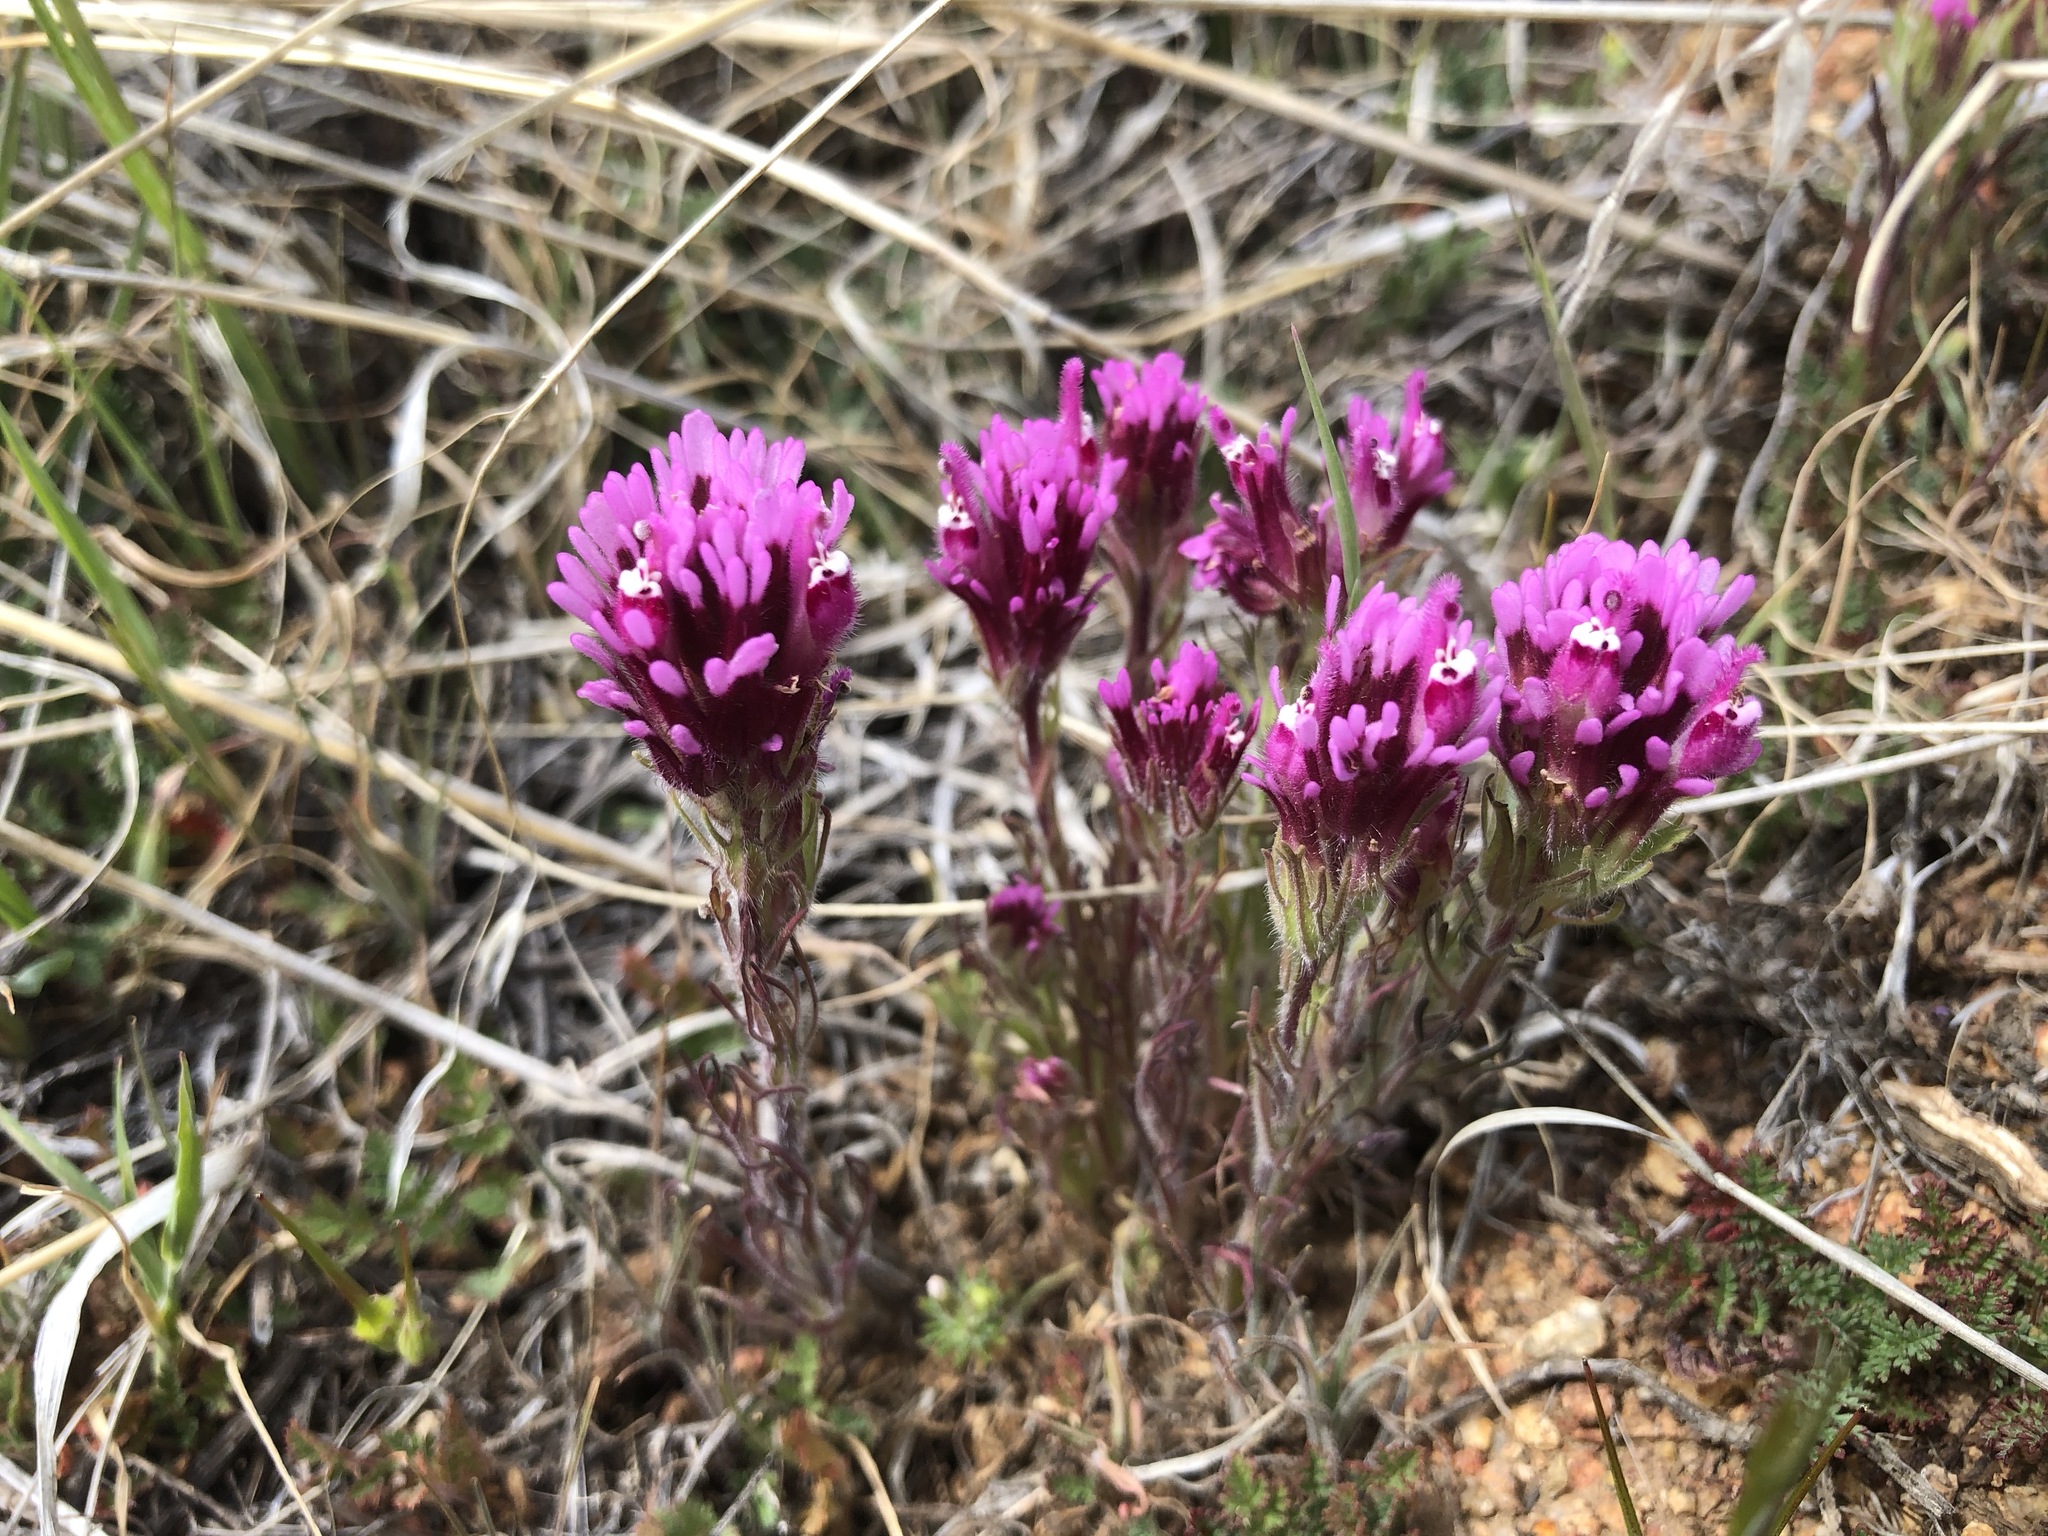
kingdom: Plantae
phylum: Tracheophyta
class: Magnoliopsida
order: Lamiales
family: Orobanchaceae
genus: Castilleja
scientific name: Castilleja exserta
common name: Purple owl-clover
